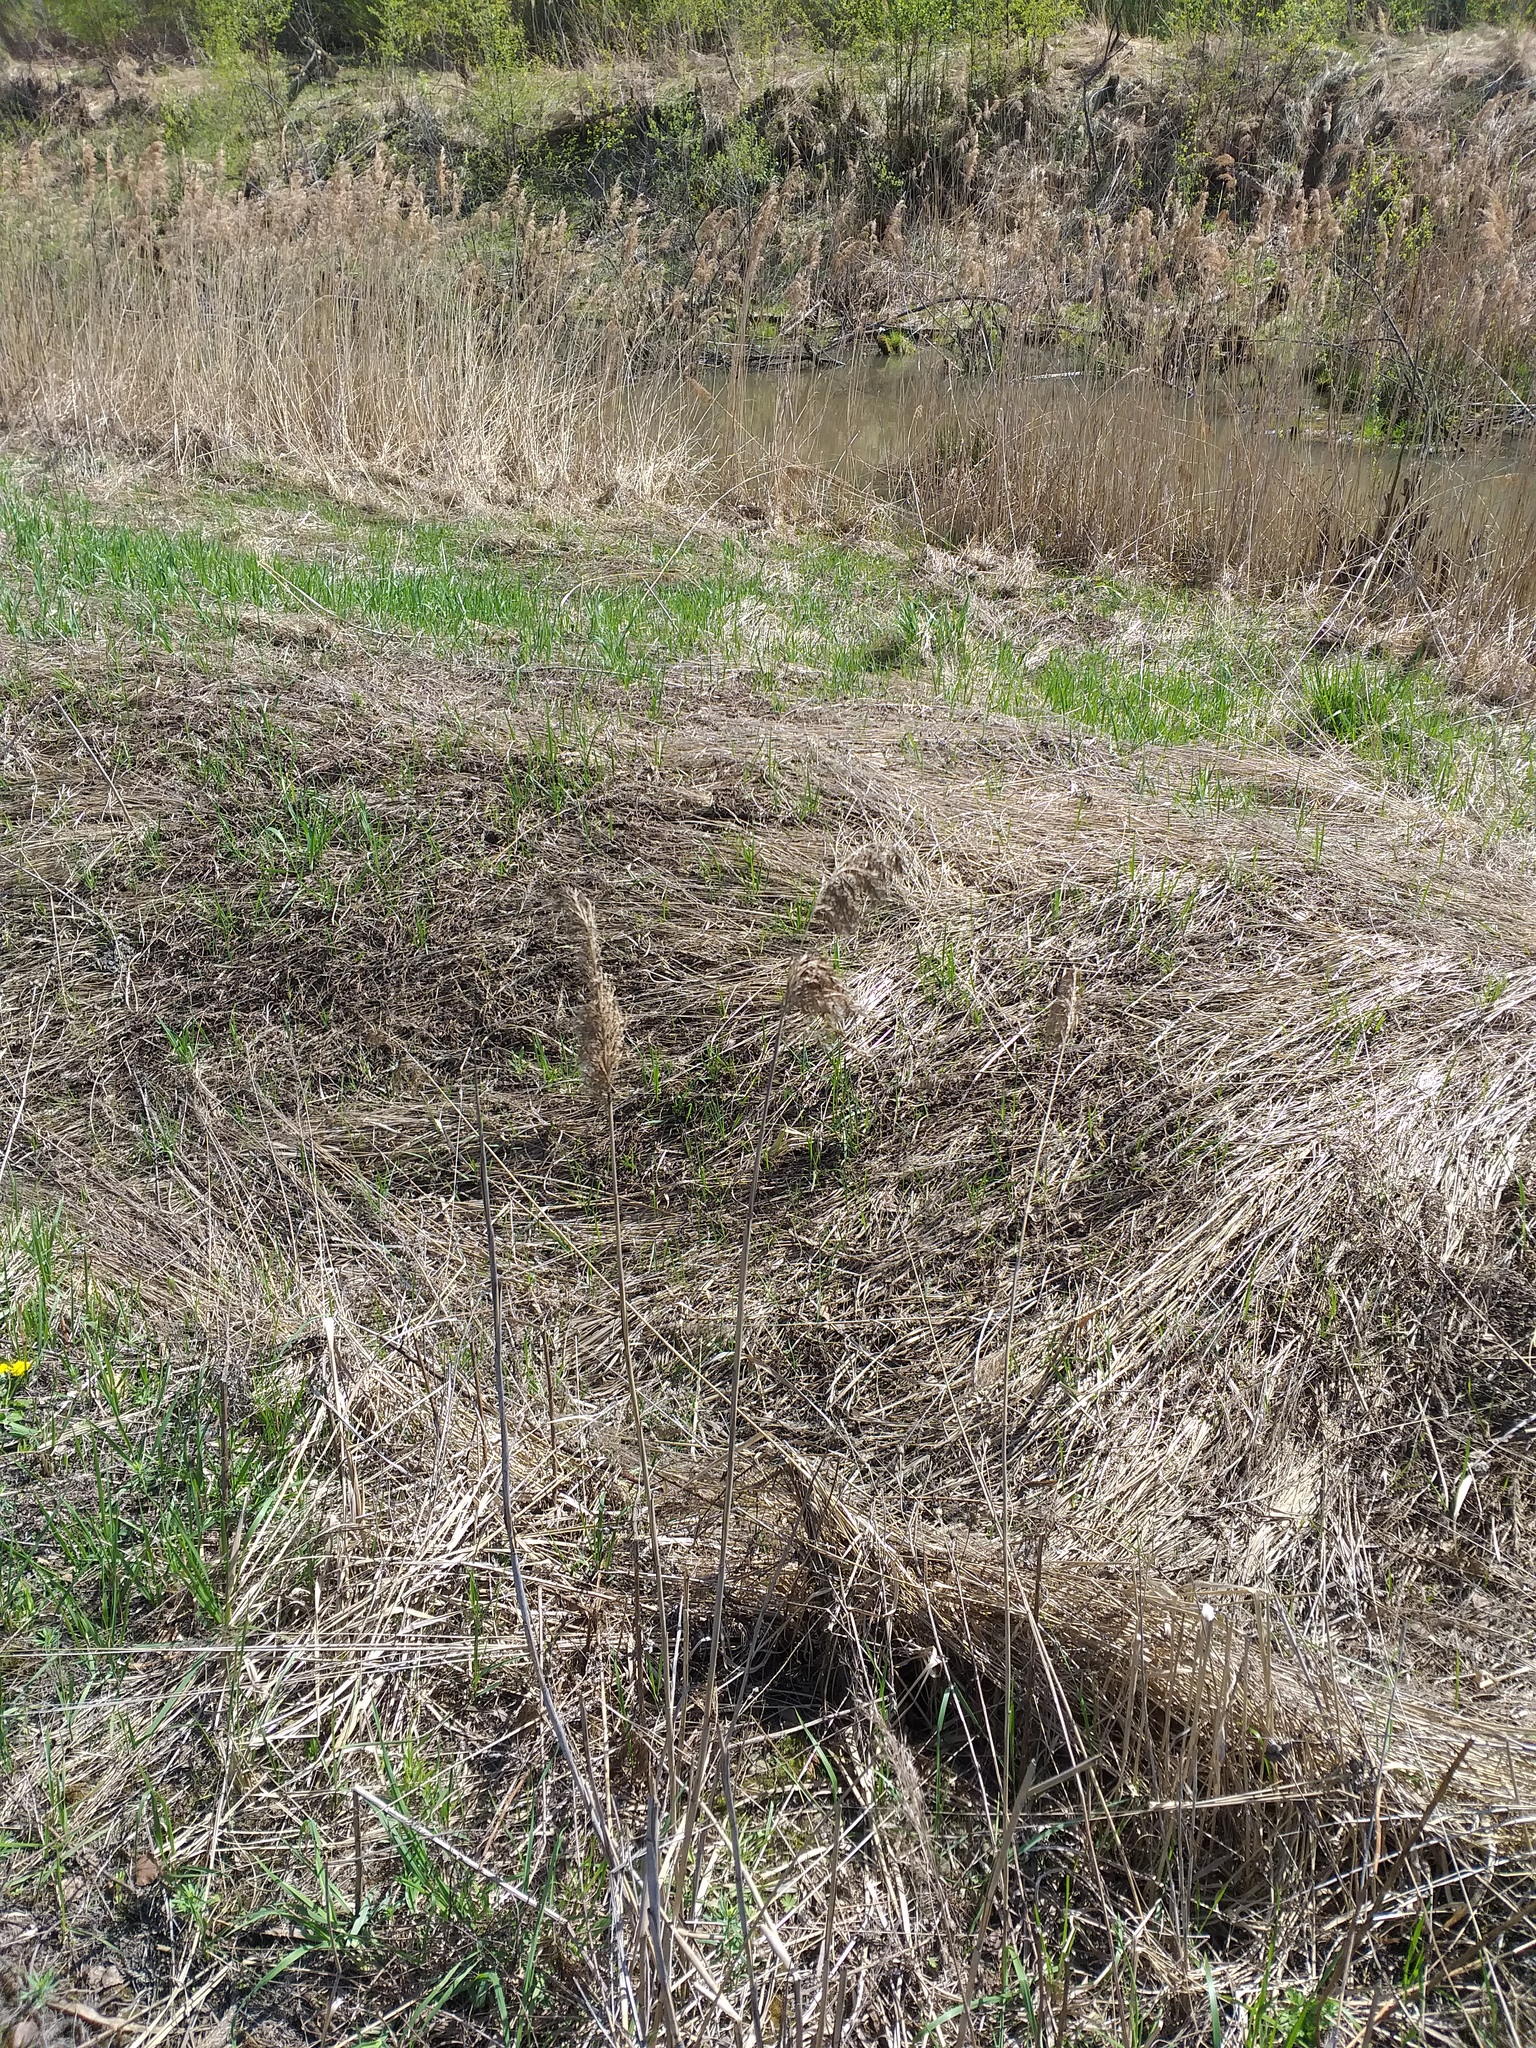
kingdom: Plantae
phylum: Tracheophyta
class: Liliopsida
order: Poales
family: Poaceae
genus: Phragmites
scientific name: Phragmites australis
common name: Common reed
